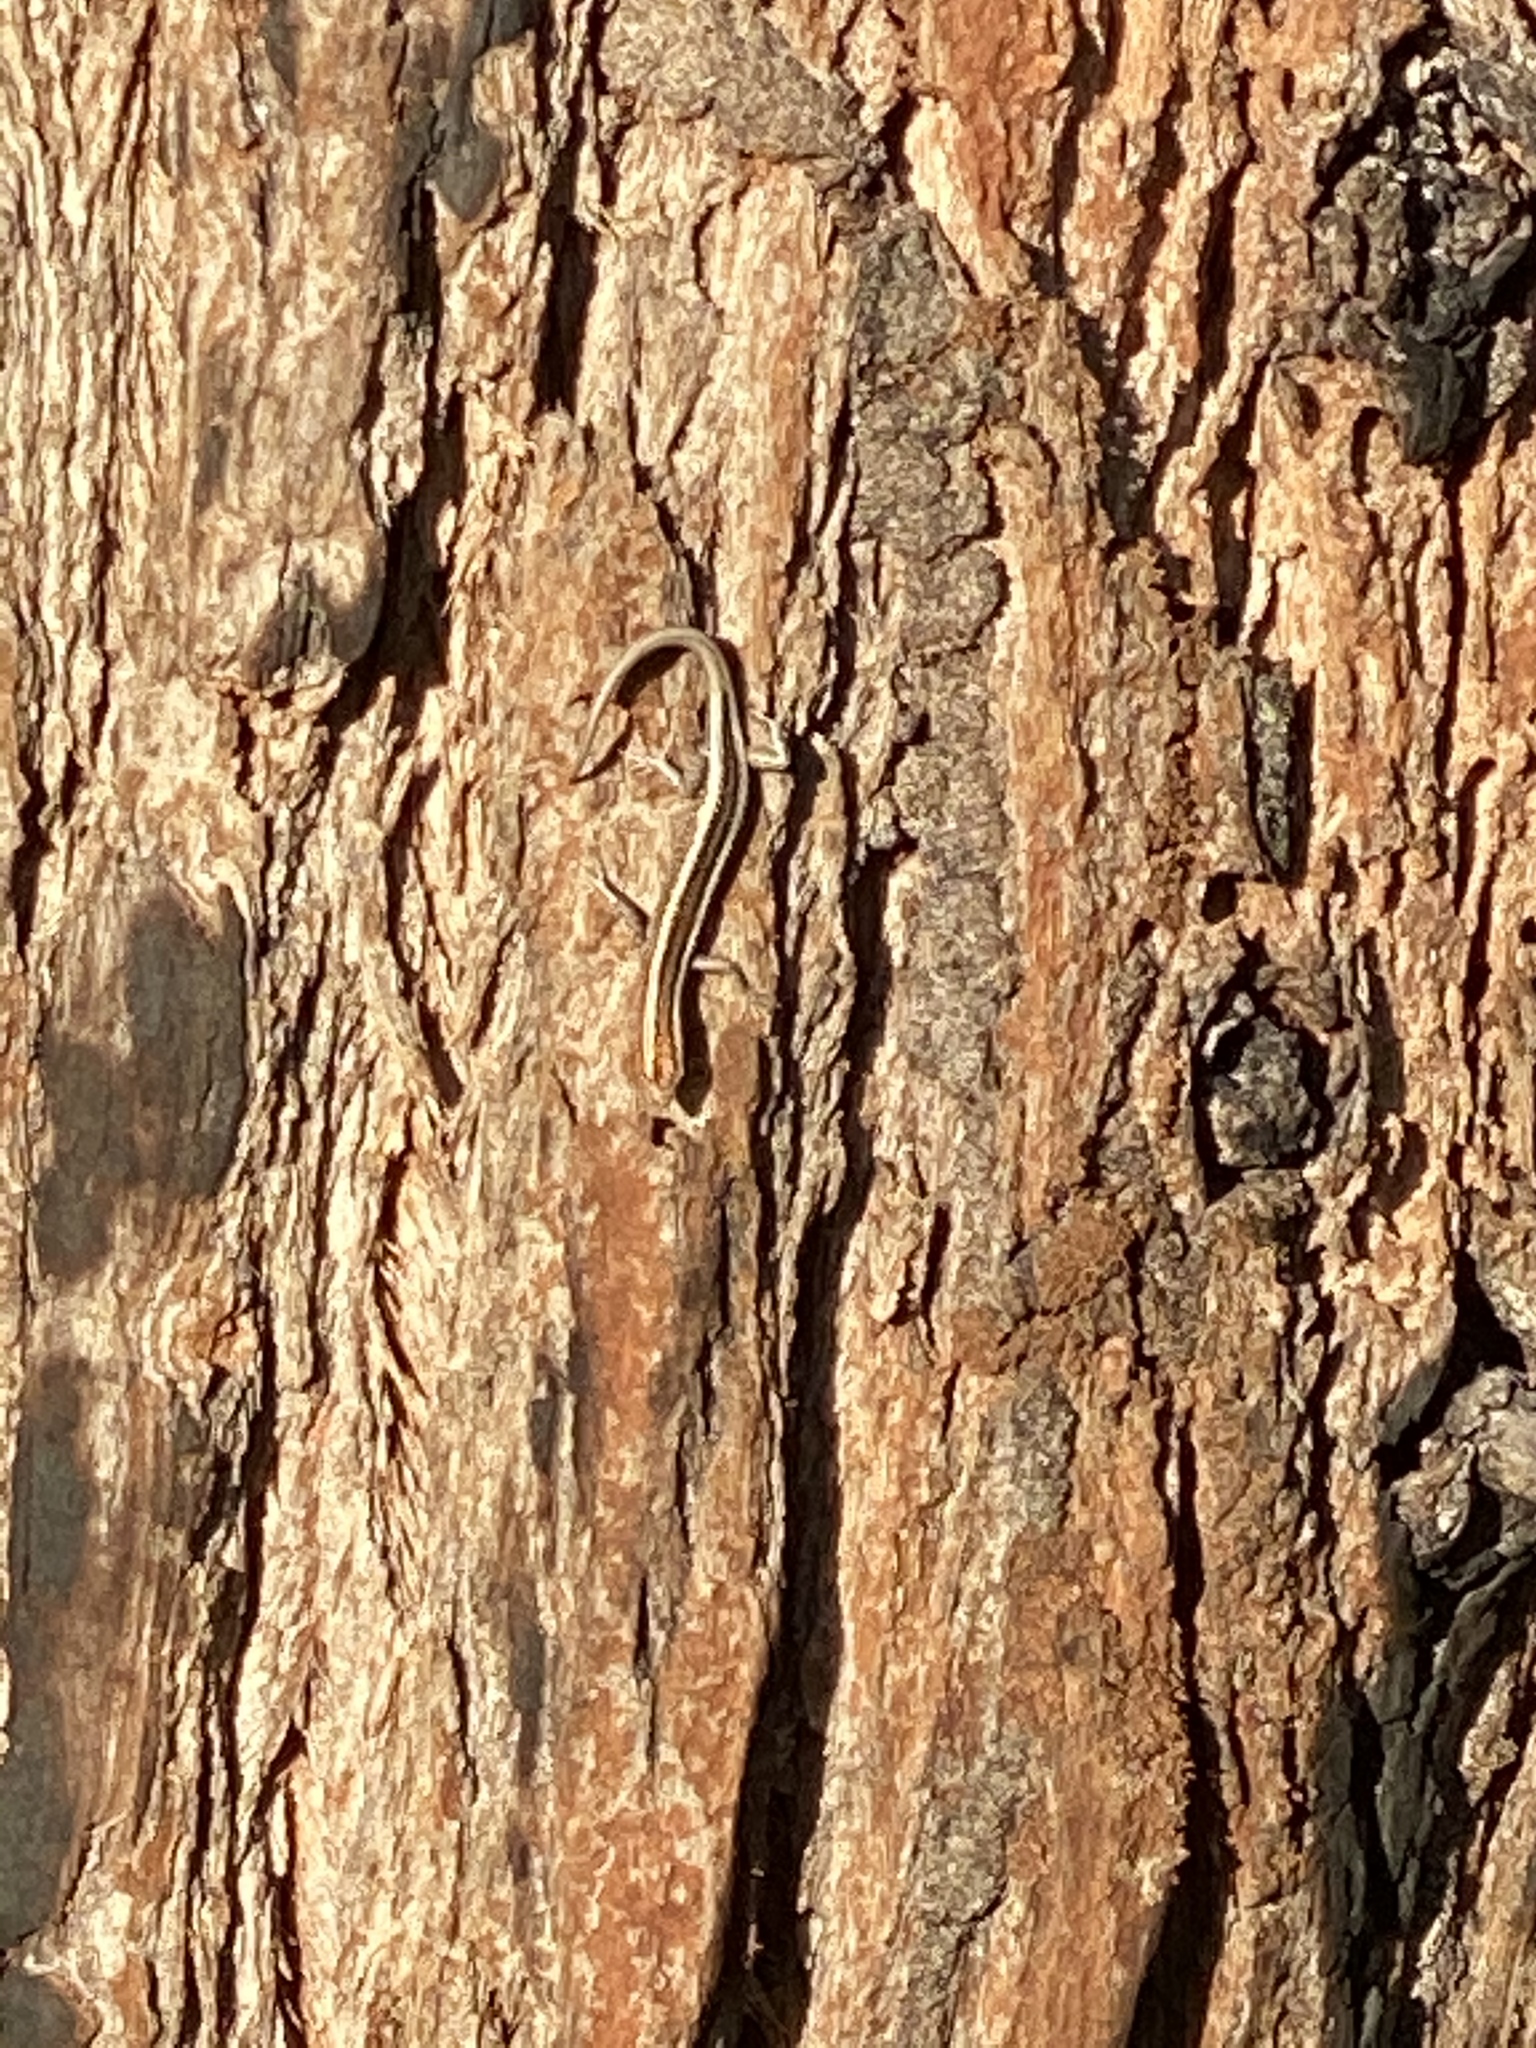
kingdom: Animalia
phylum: Chordata
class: Squamata
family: Scincidae
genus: Cryptoblepharus
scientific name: Cryptoblepharus pulcher
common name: Elegant snake-eyed skink
